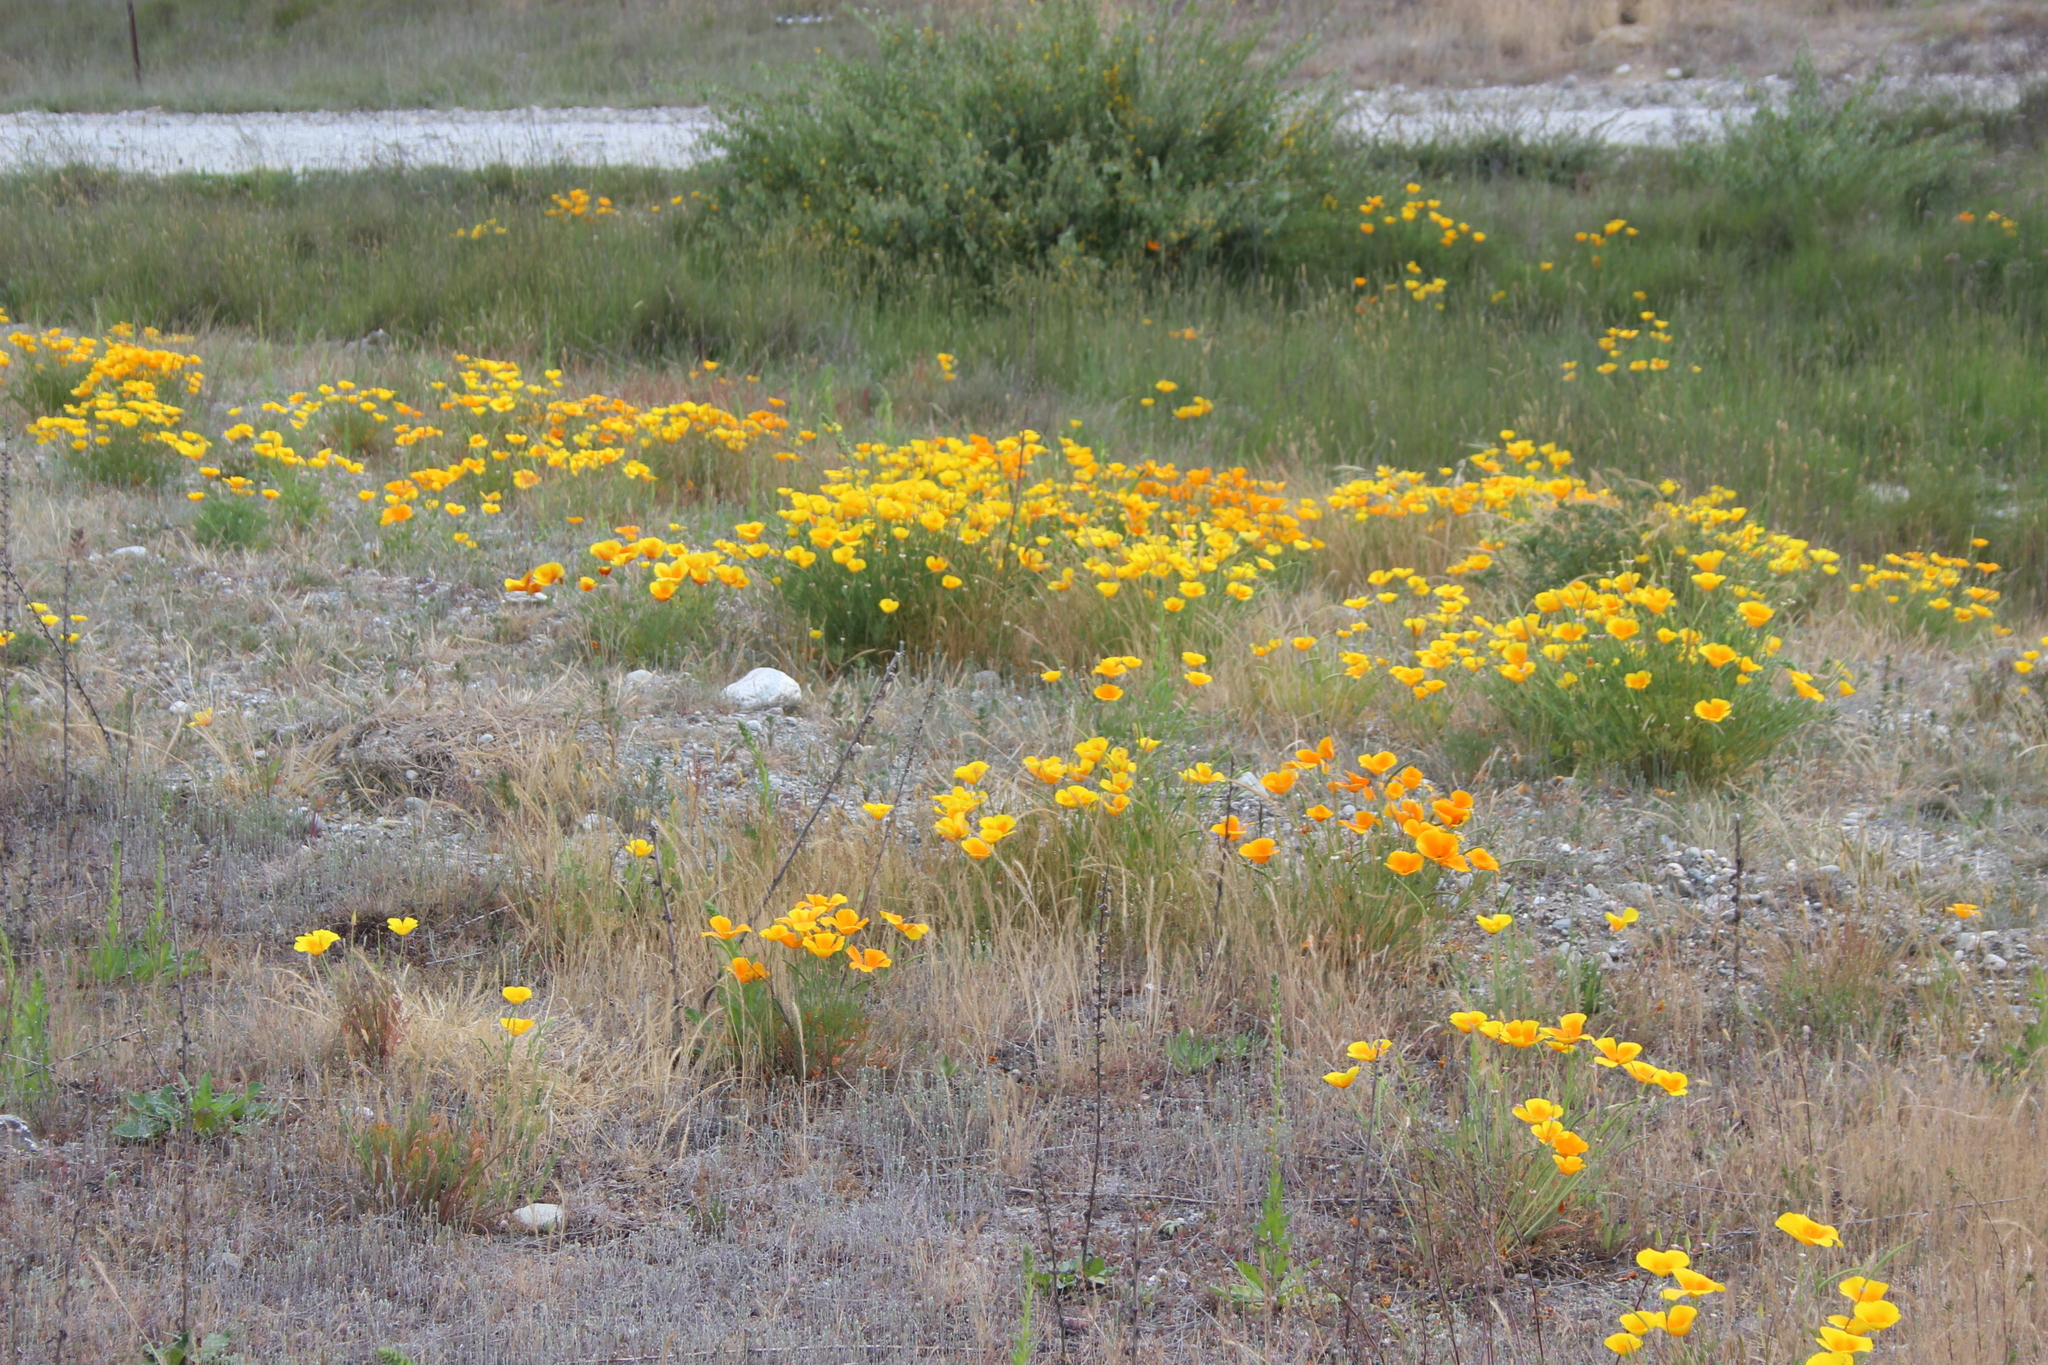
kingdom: Plantae
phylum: Tracheophyta
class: Magnoliopsida
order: Ranunculales
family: Papaveraceae
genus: Eschscholzia
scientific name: Eschscholzia californica
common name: California poppy
